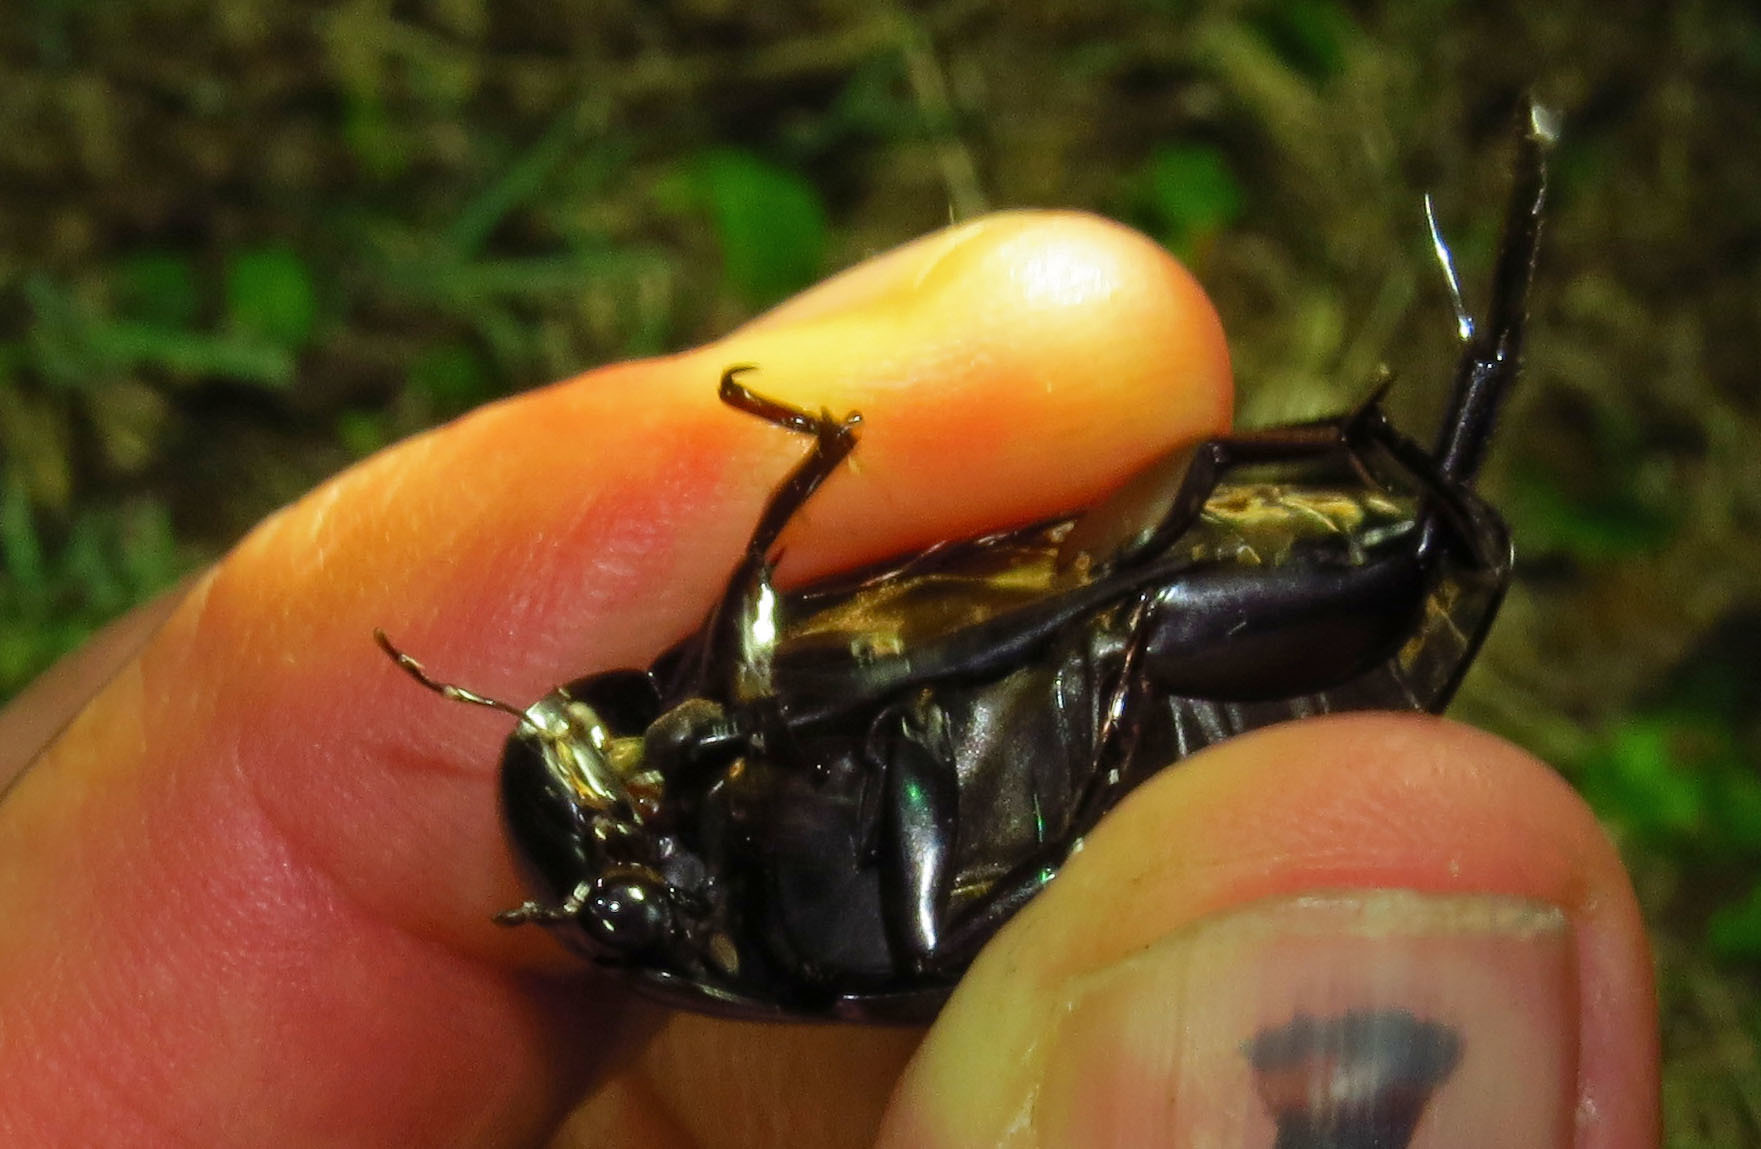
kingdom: Animalia
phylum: Arthropoda
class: Insecta
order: Coleoptera
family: Hydrophilidae
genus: Hydrophilus
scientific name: Hydrophilus ovatus
